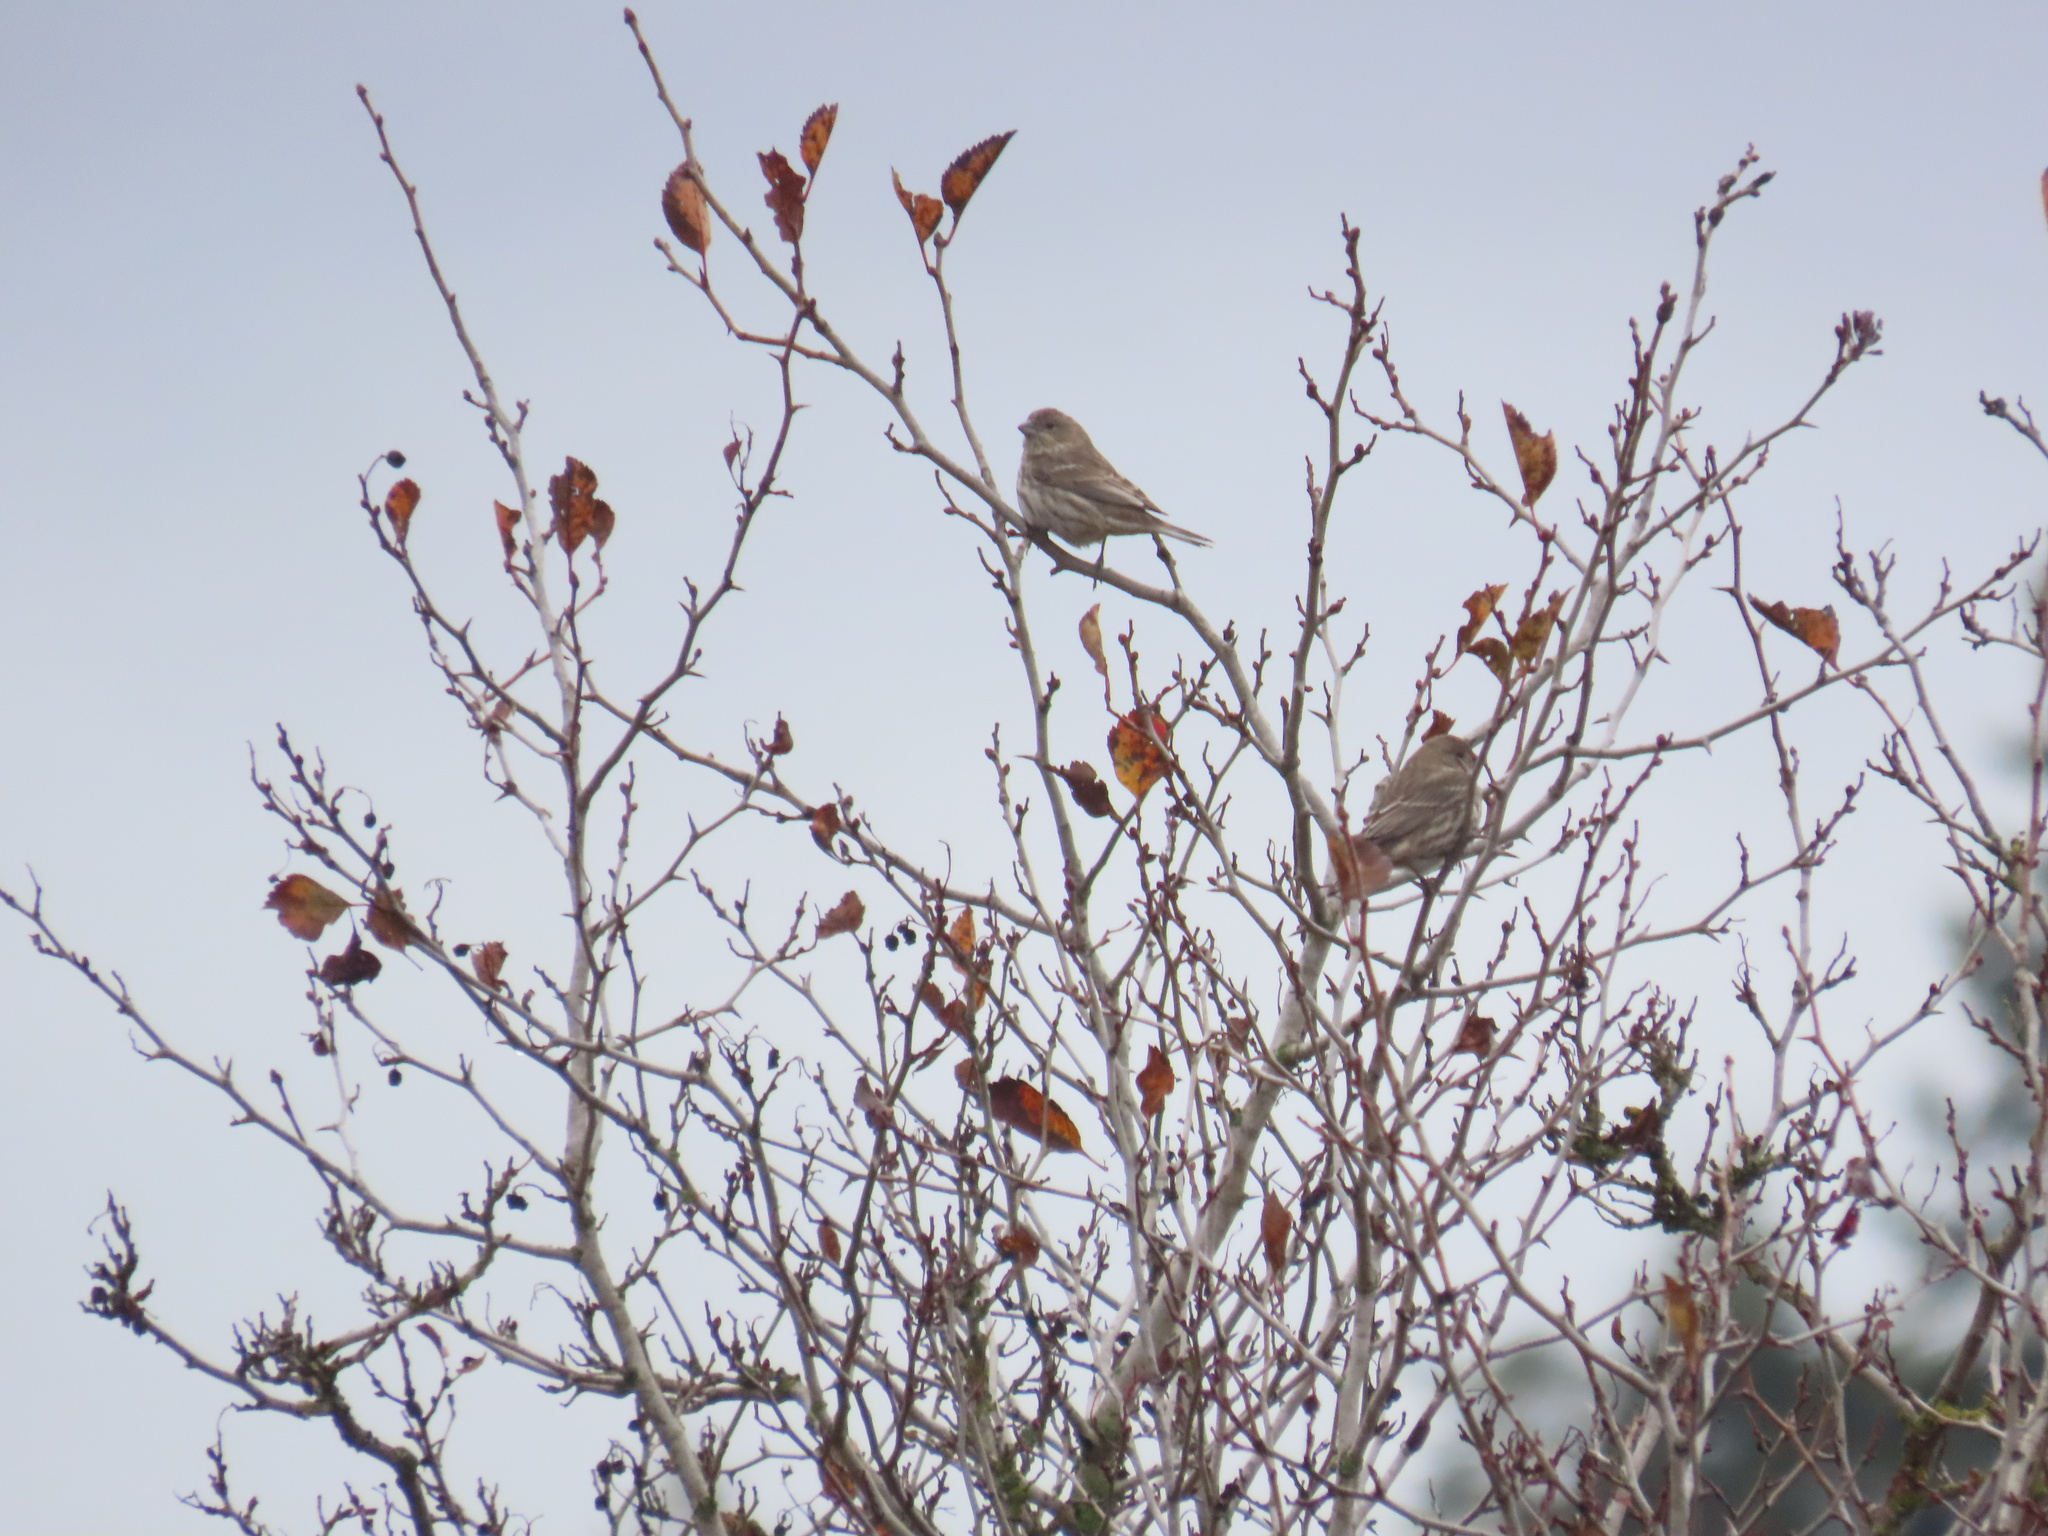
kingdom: Animalia
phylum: Chordata
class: Aves
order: Passeriformes
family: Fringillidae
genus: Haemorhous
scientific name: Haemorhous mexicanus
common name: House finch
